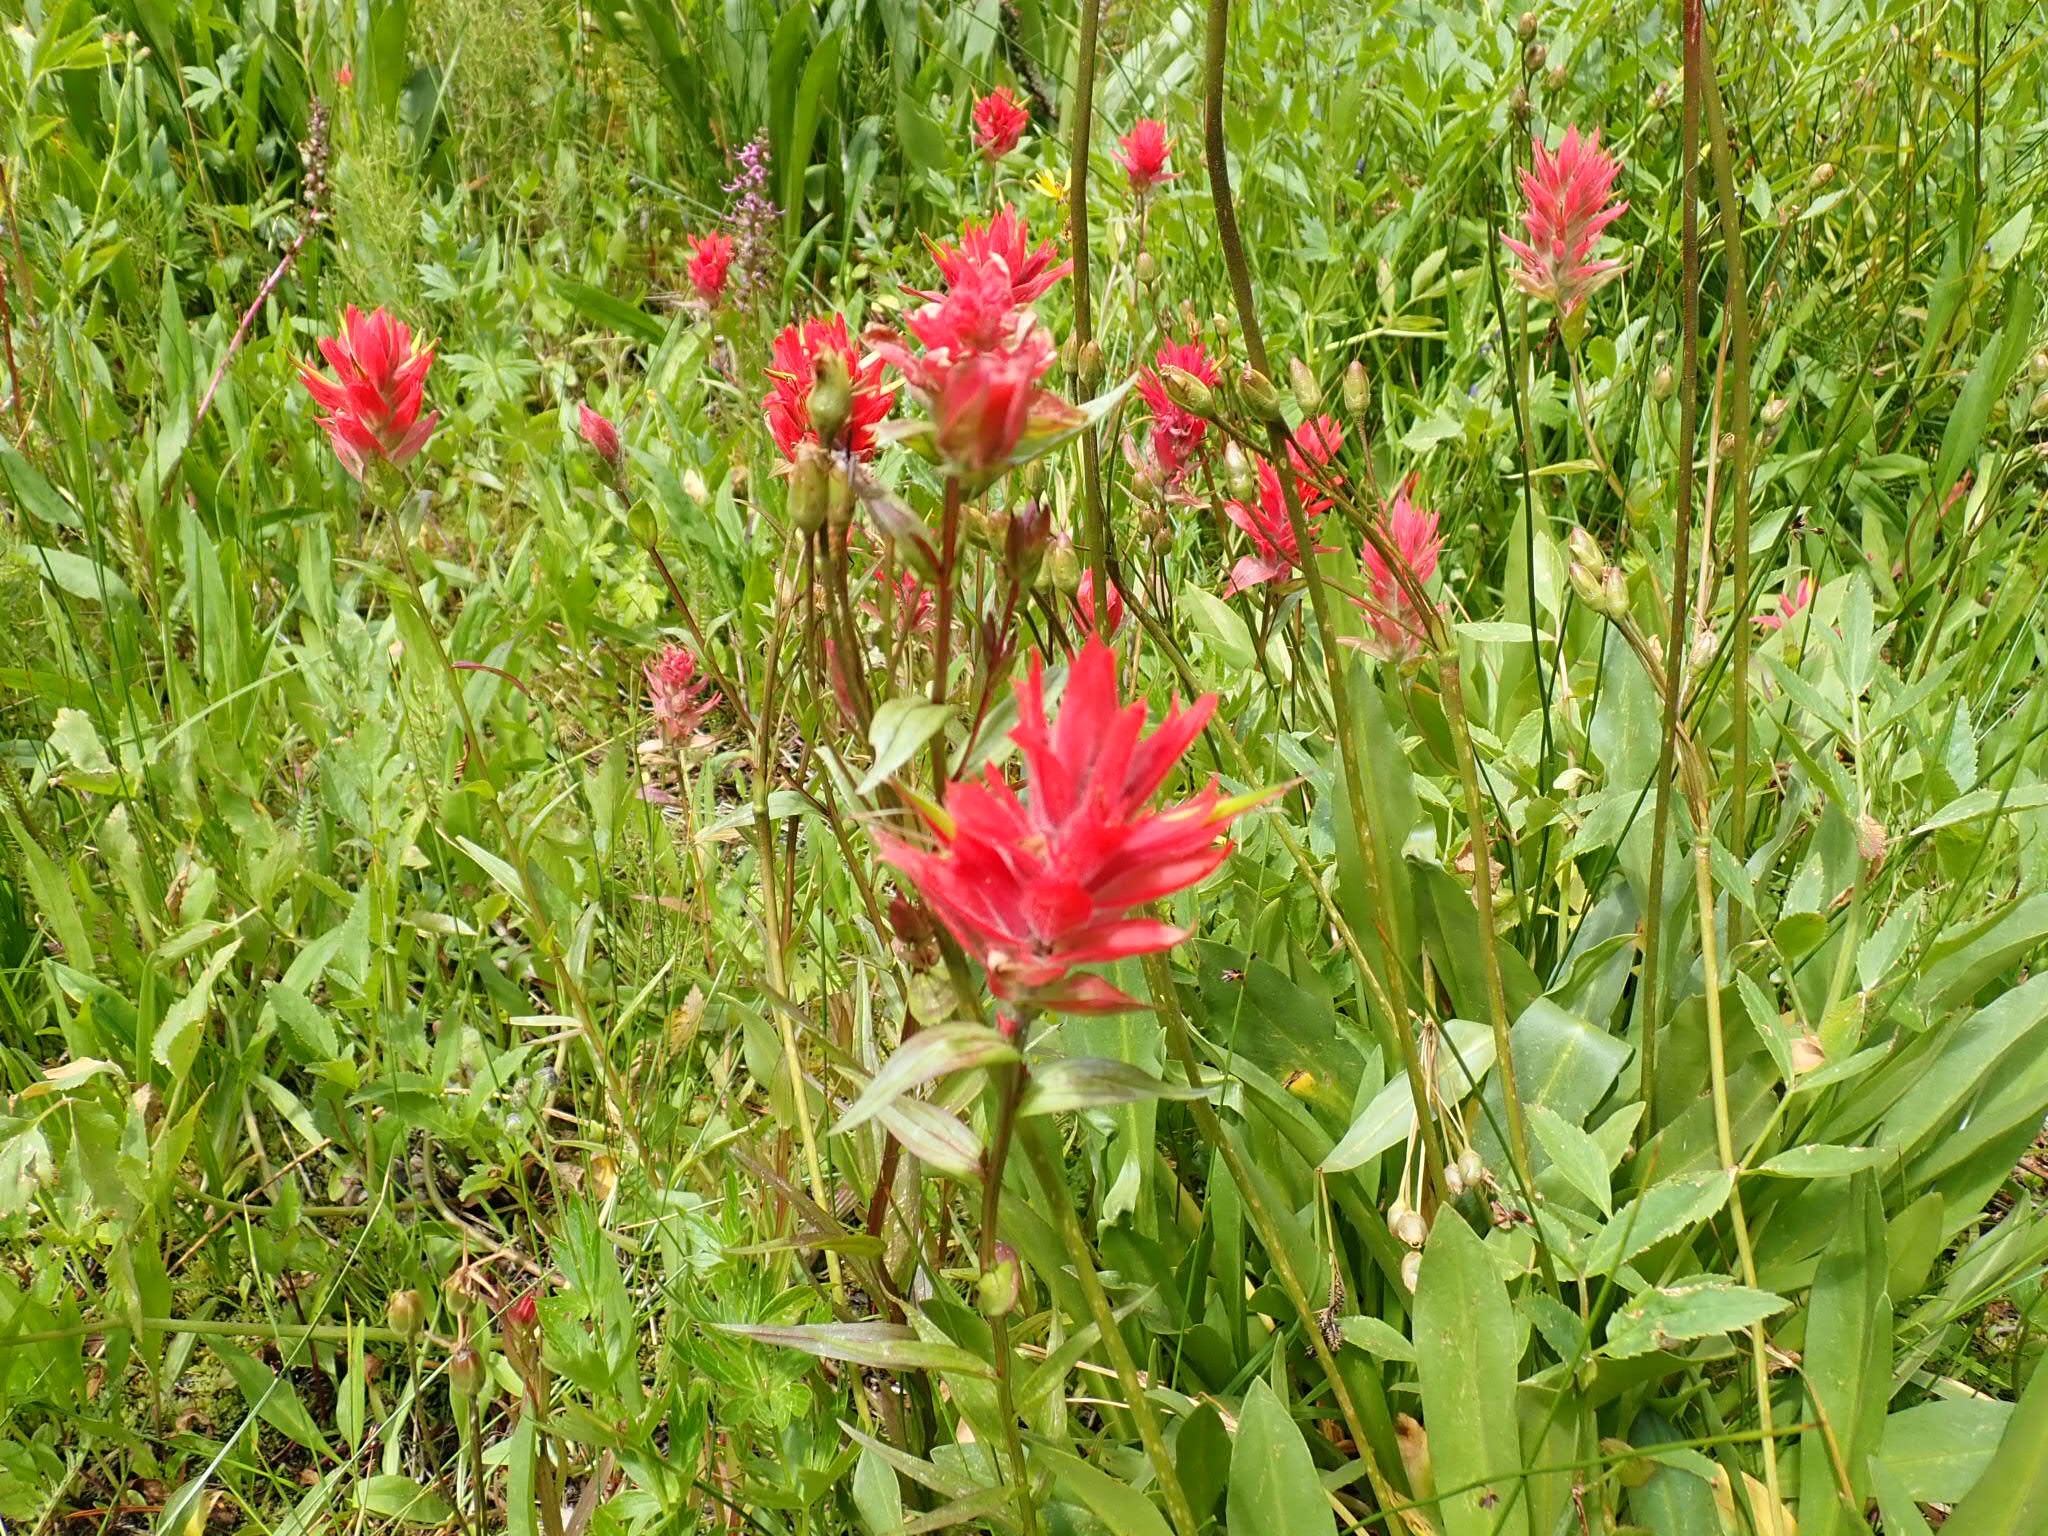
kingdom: Plantae
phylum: Tracheophyta
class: Magnoliopsida
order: Lamiales
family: Orobanchaceae
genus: Castilleja
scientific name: Castilleja miniata
